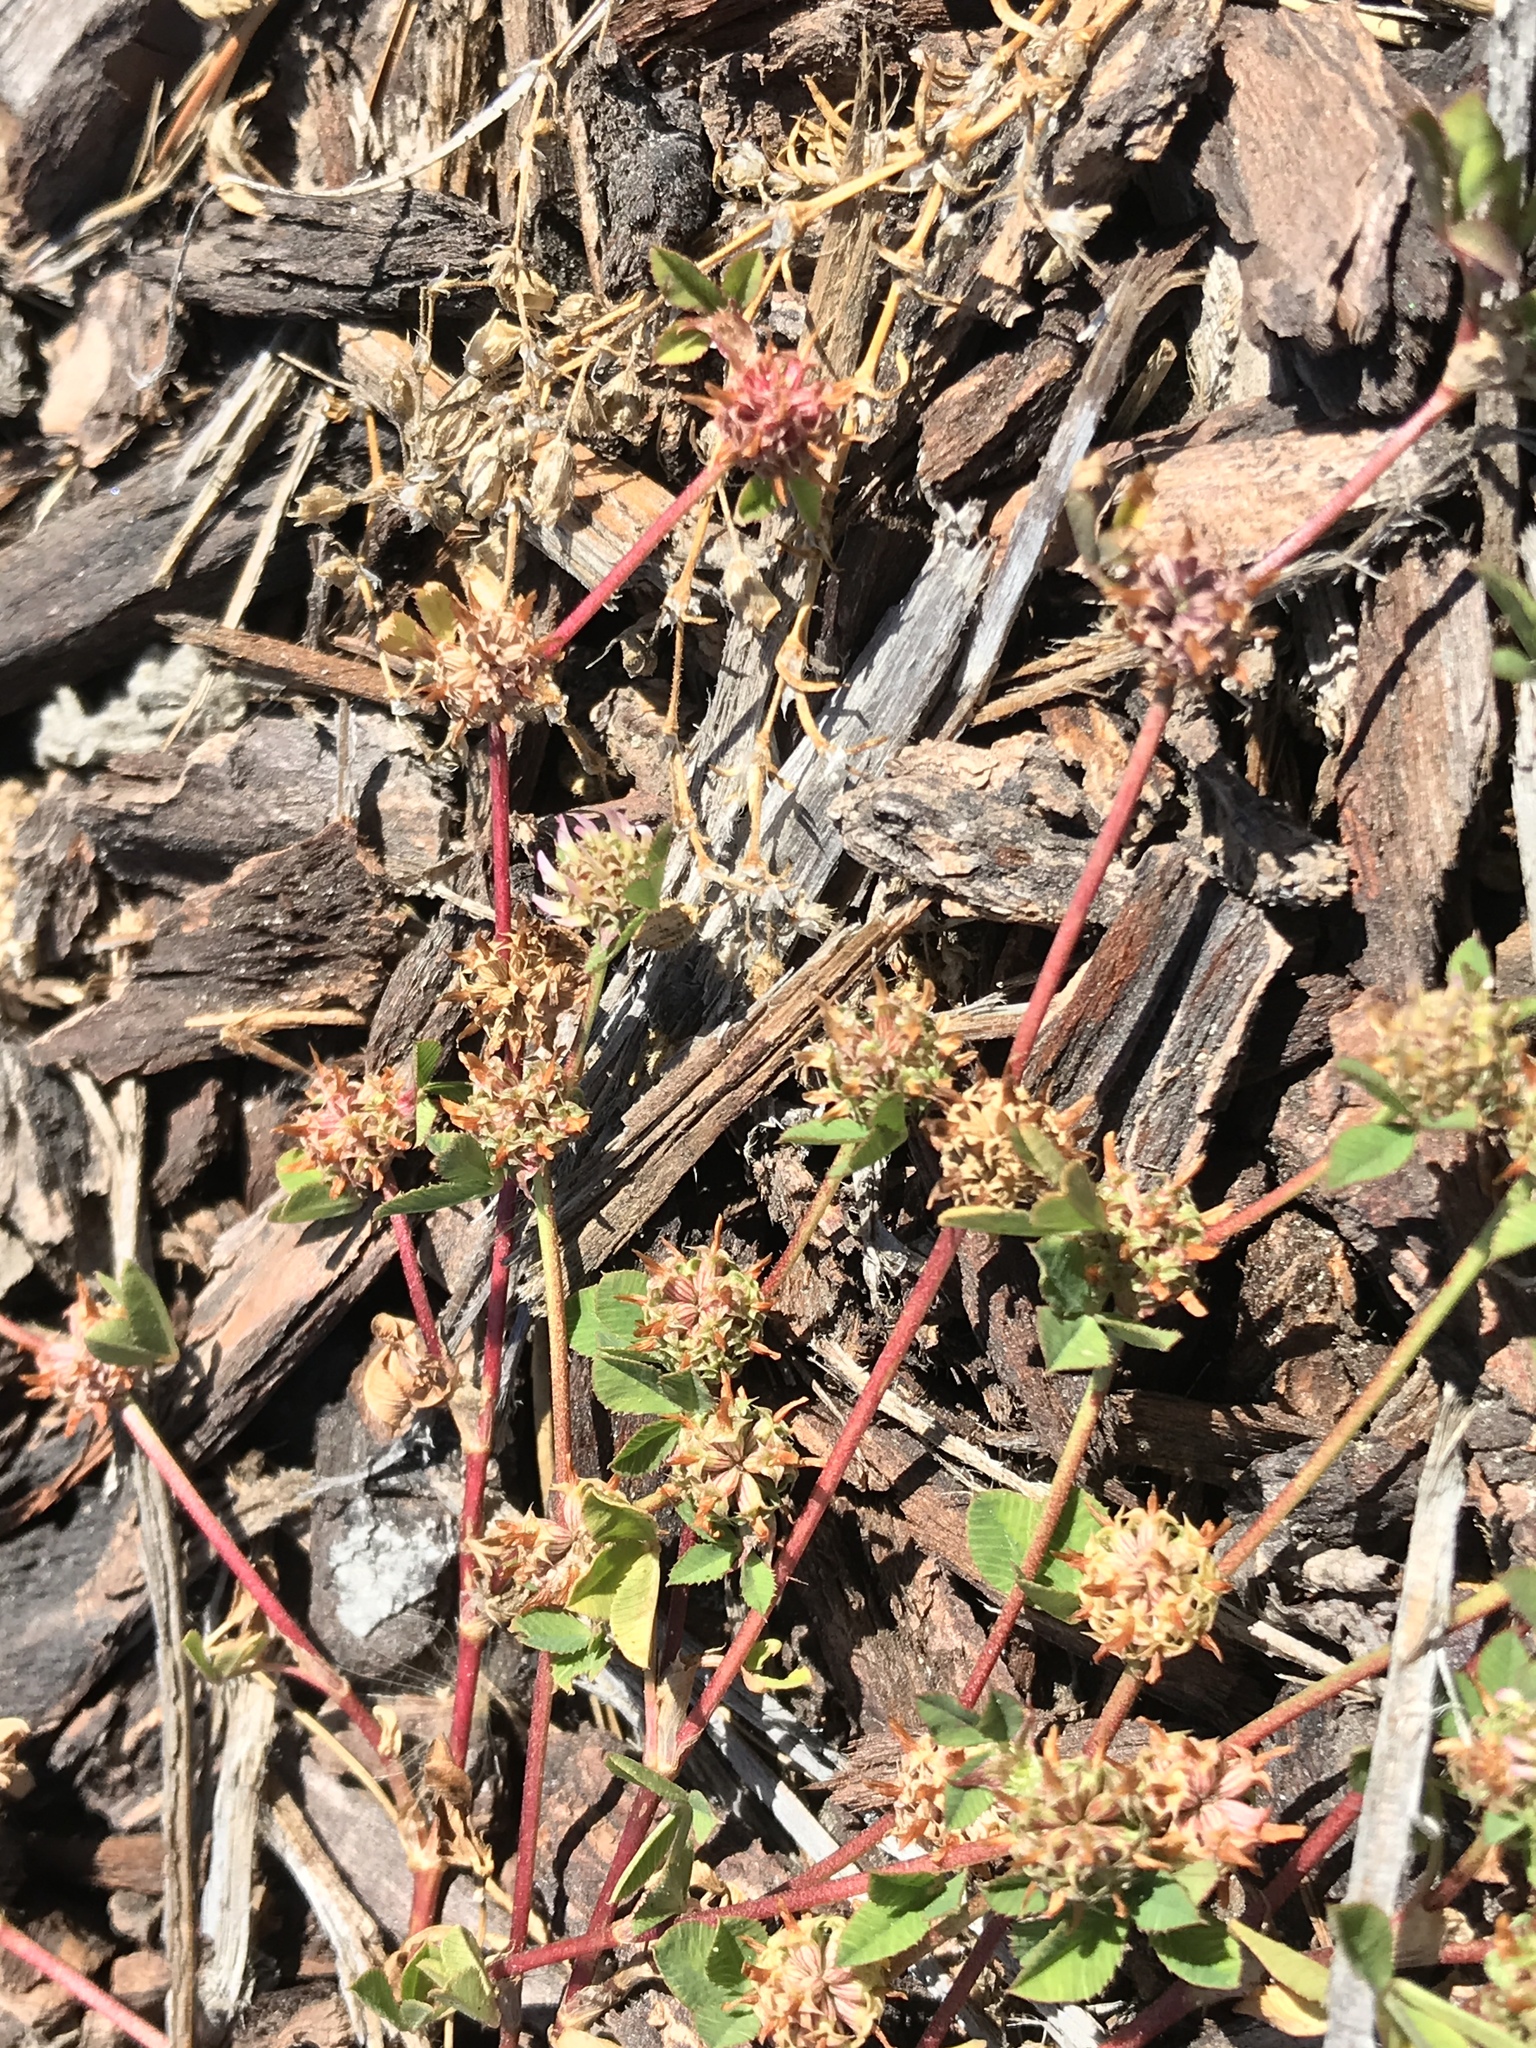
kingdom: Plantae
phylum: Tracheophyta
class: Magnoliopsida
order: Fabales
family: Fabaceae
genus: Trifolium
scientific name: Trifolium glomeratum
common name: Clustered clover
